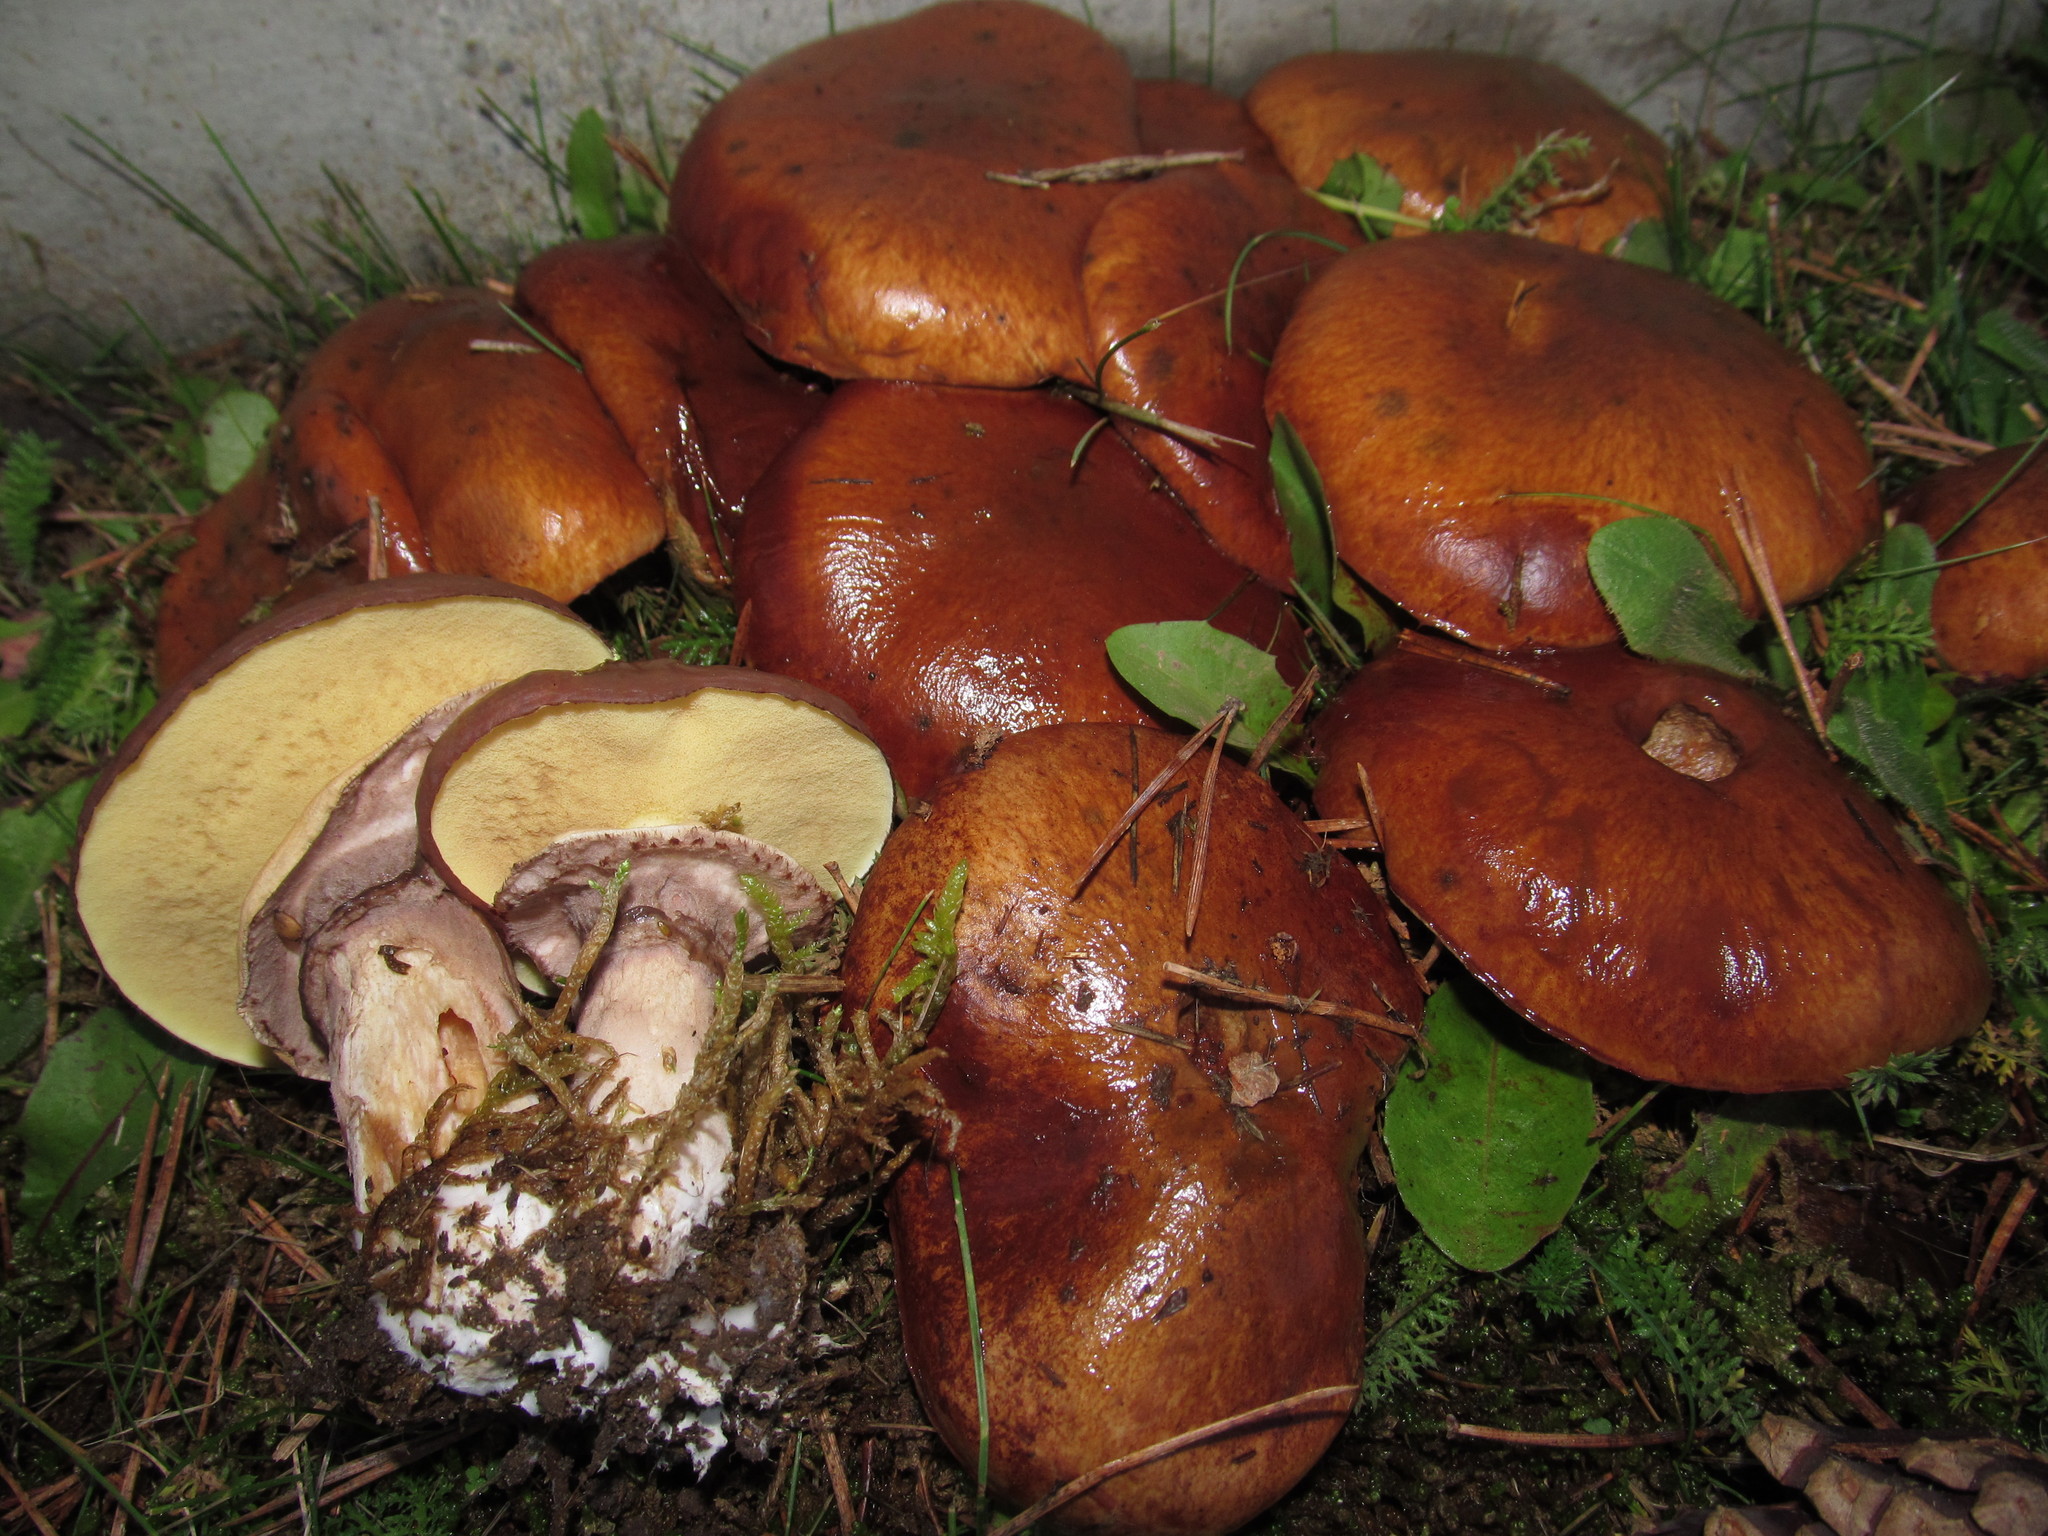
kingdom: Fungi
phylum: Basidiomycota
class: Agaricomycetes
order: Boletales
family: Suillaceae
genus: Suillus
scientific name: Suillus luteus
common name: Slippery jack
